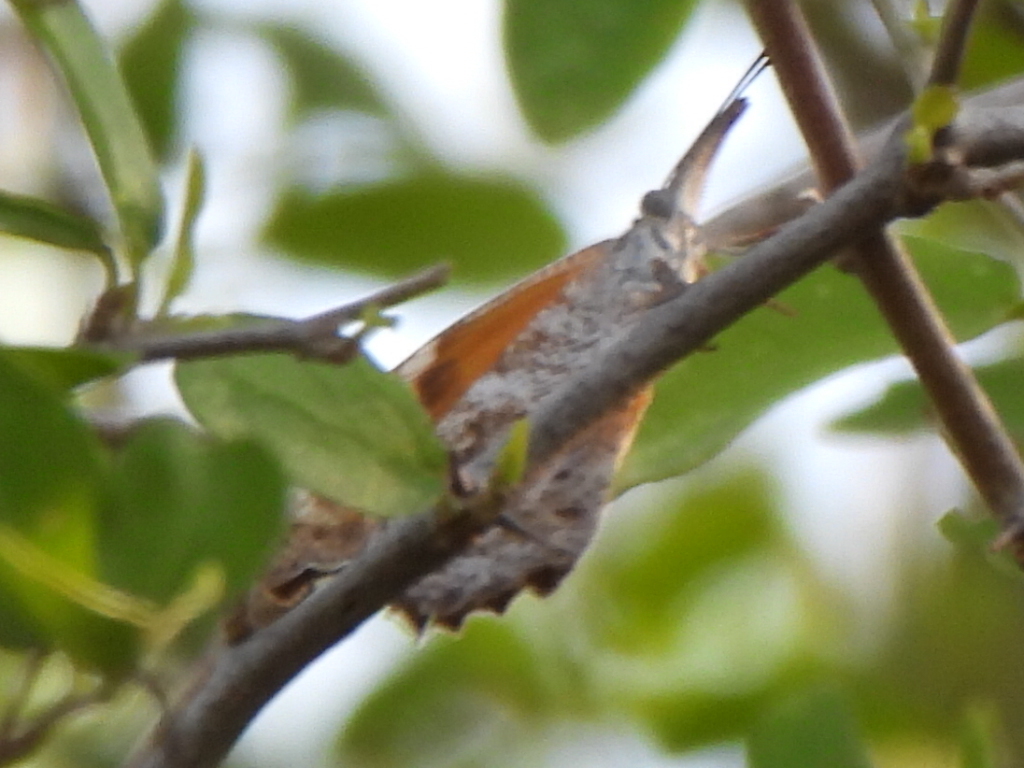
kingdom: Animalia
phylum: Arthropoda
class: Insecta
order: Lepidoptera
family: Nymphalidae
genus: Libytheana
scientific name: Libytheana carinenta
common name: American snout
